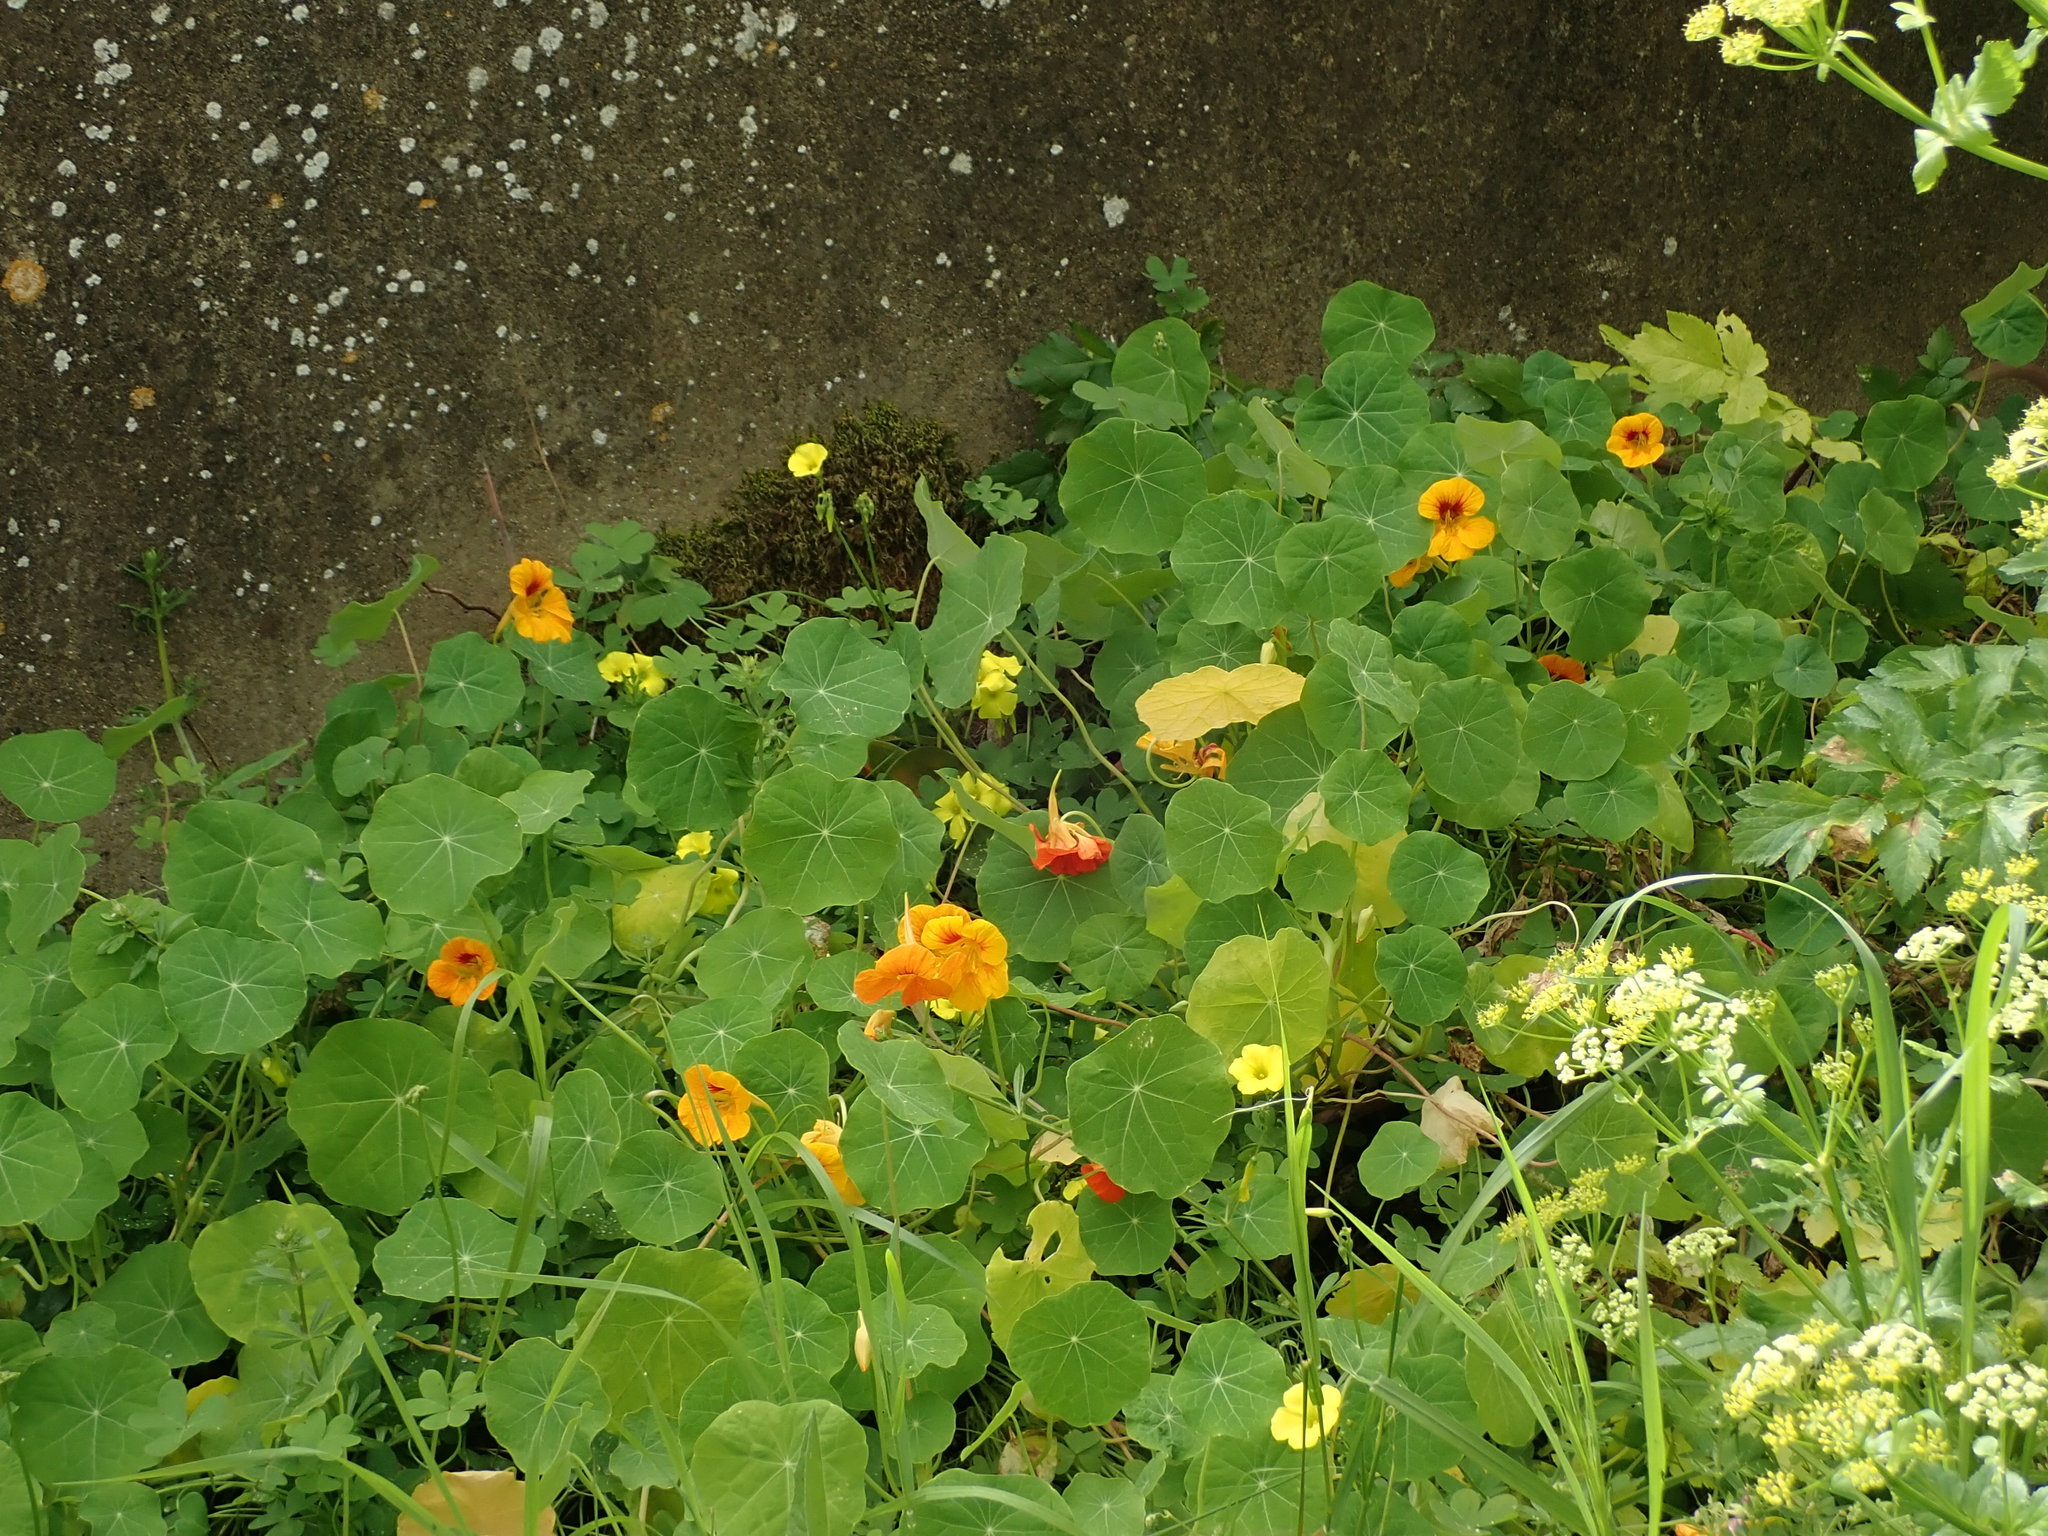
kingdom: Plantae
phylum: Tracheophyta
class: Magnoliopsida
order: Brassicales
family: Tropaeolaceae
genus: Tropaeolum
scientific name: Tropaeolum majus
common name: Nasturtium
